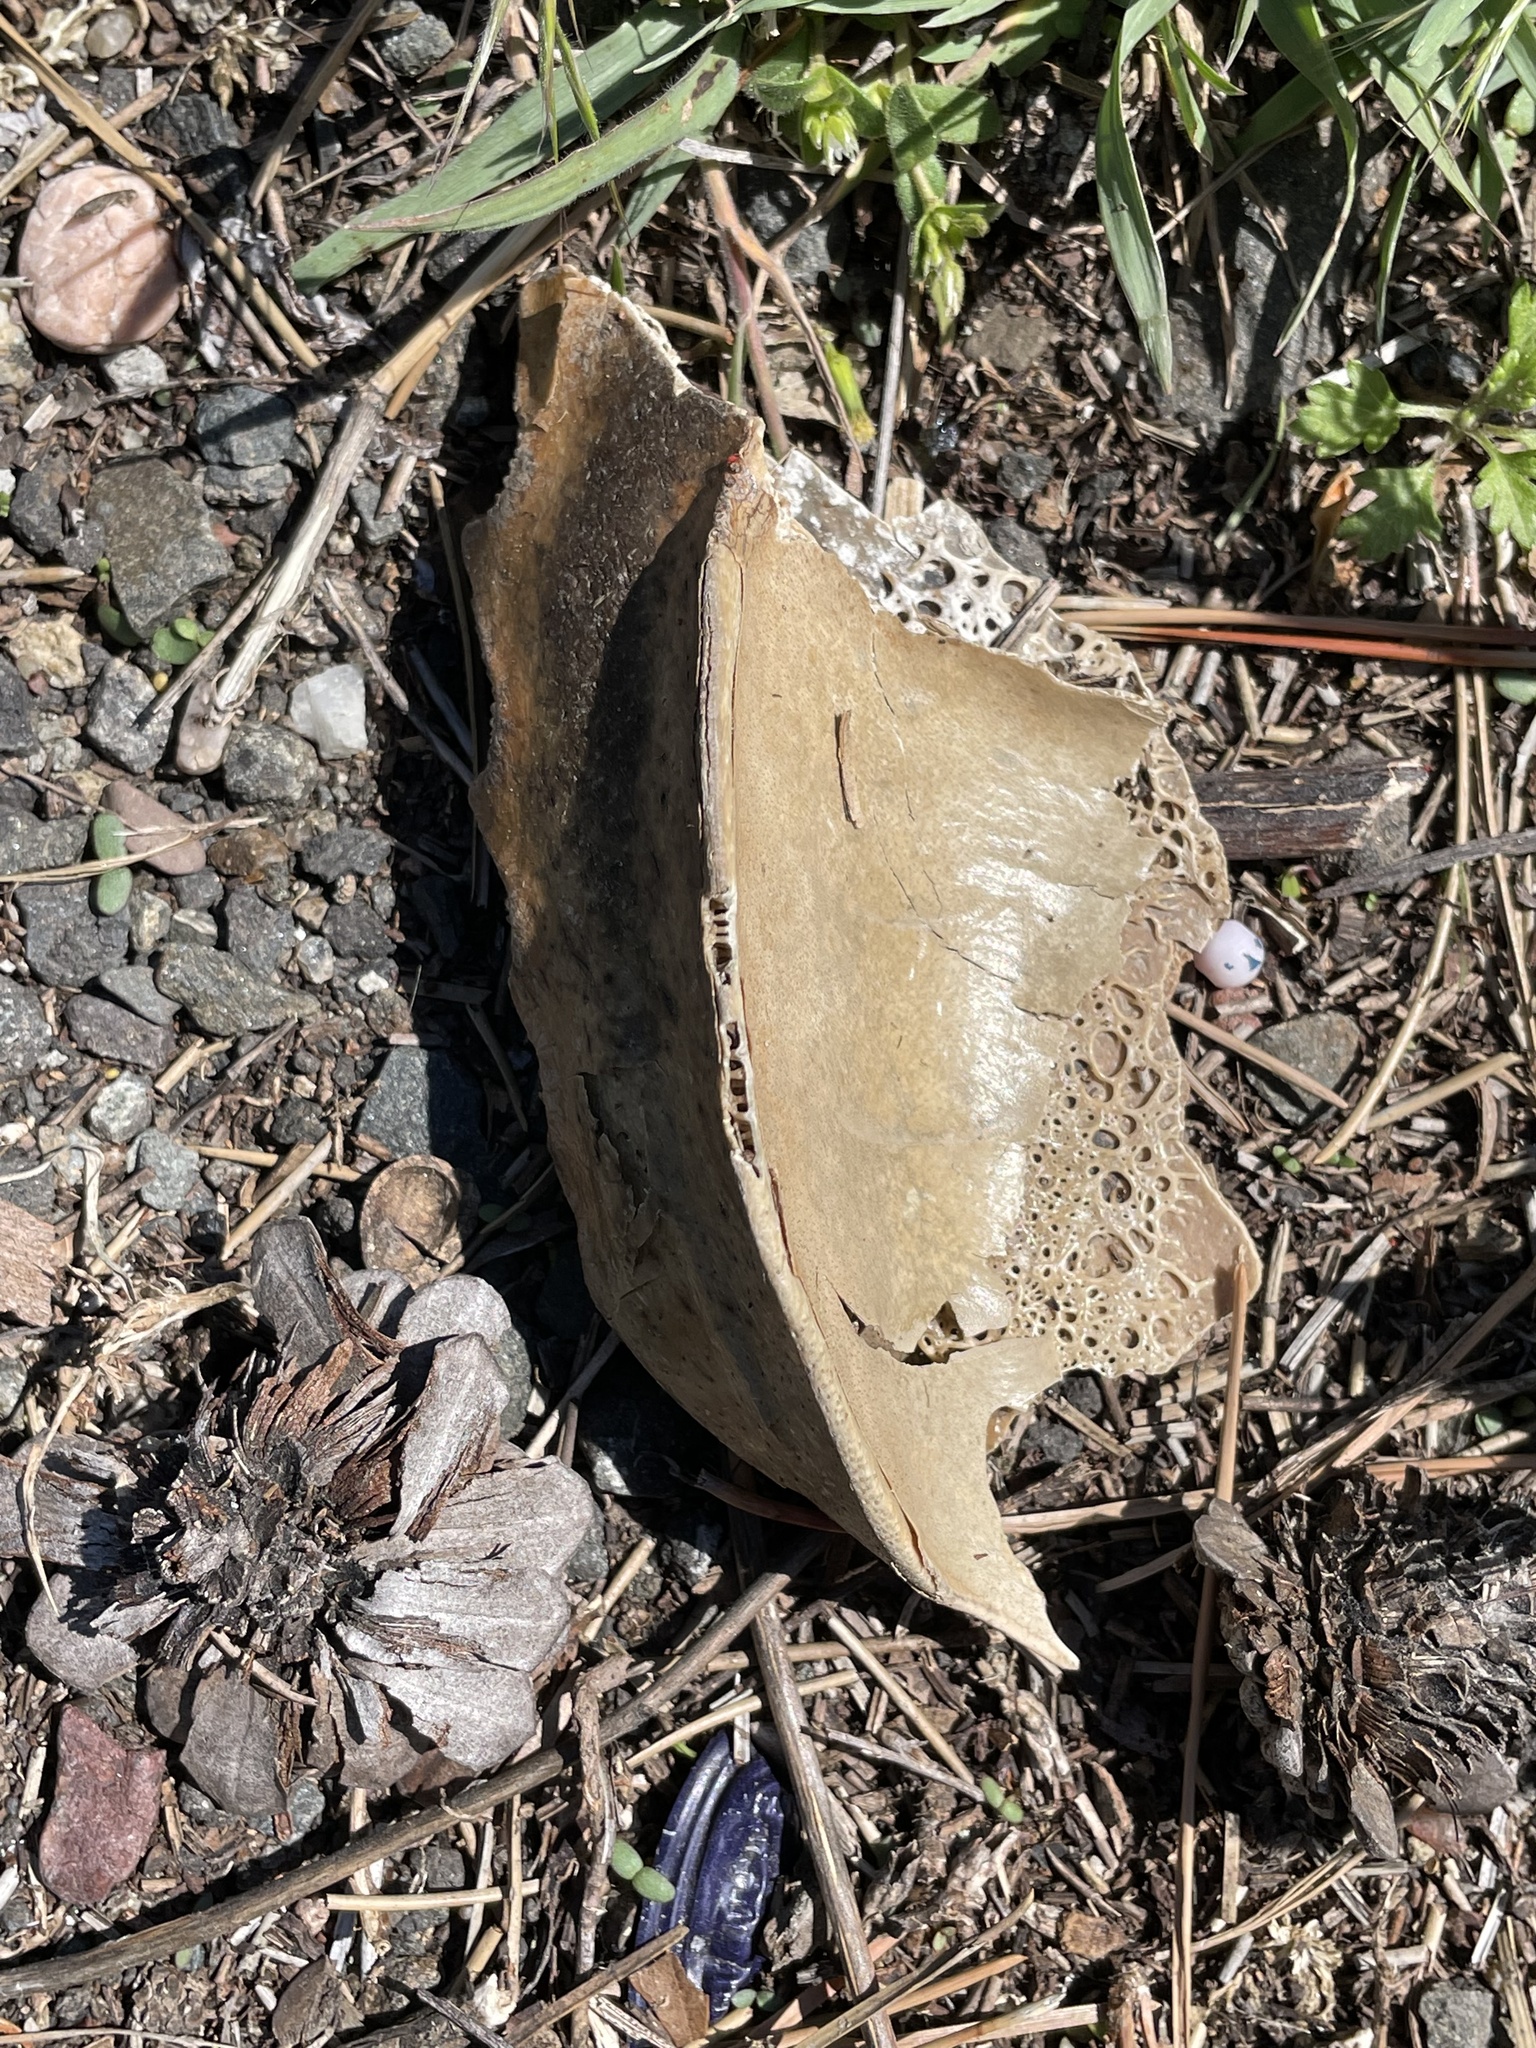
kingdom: Animalia
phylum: Arthropoda
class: Merostomata
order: Xiphosurida
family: Limulidae
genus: Limulus
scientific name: Limulus polyphemus
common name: Horseshoe crab
